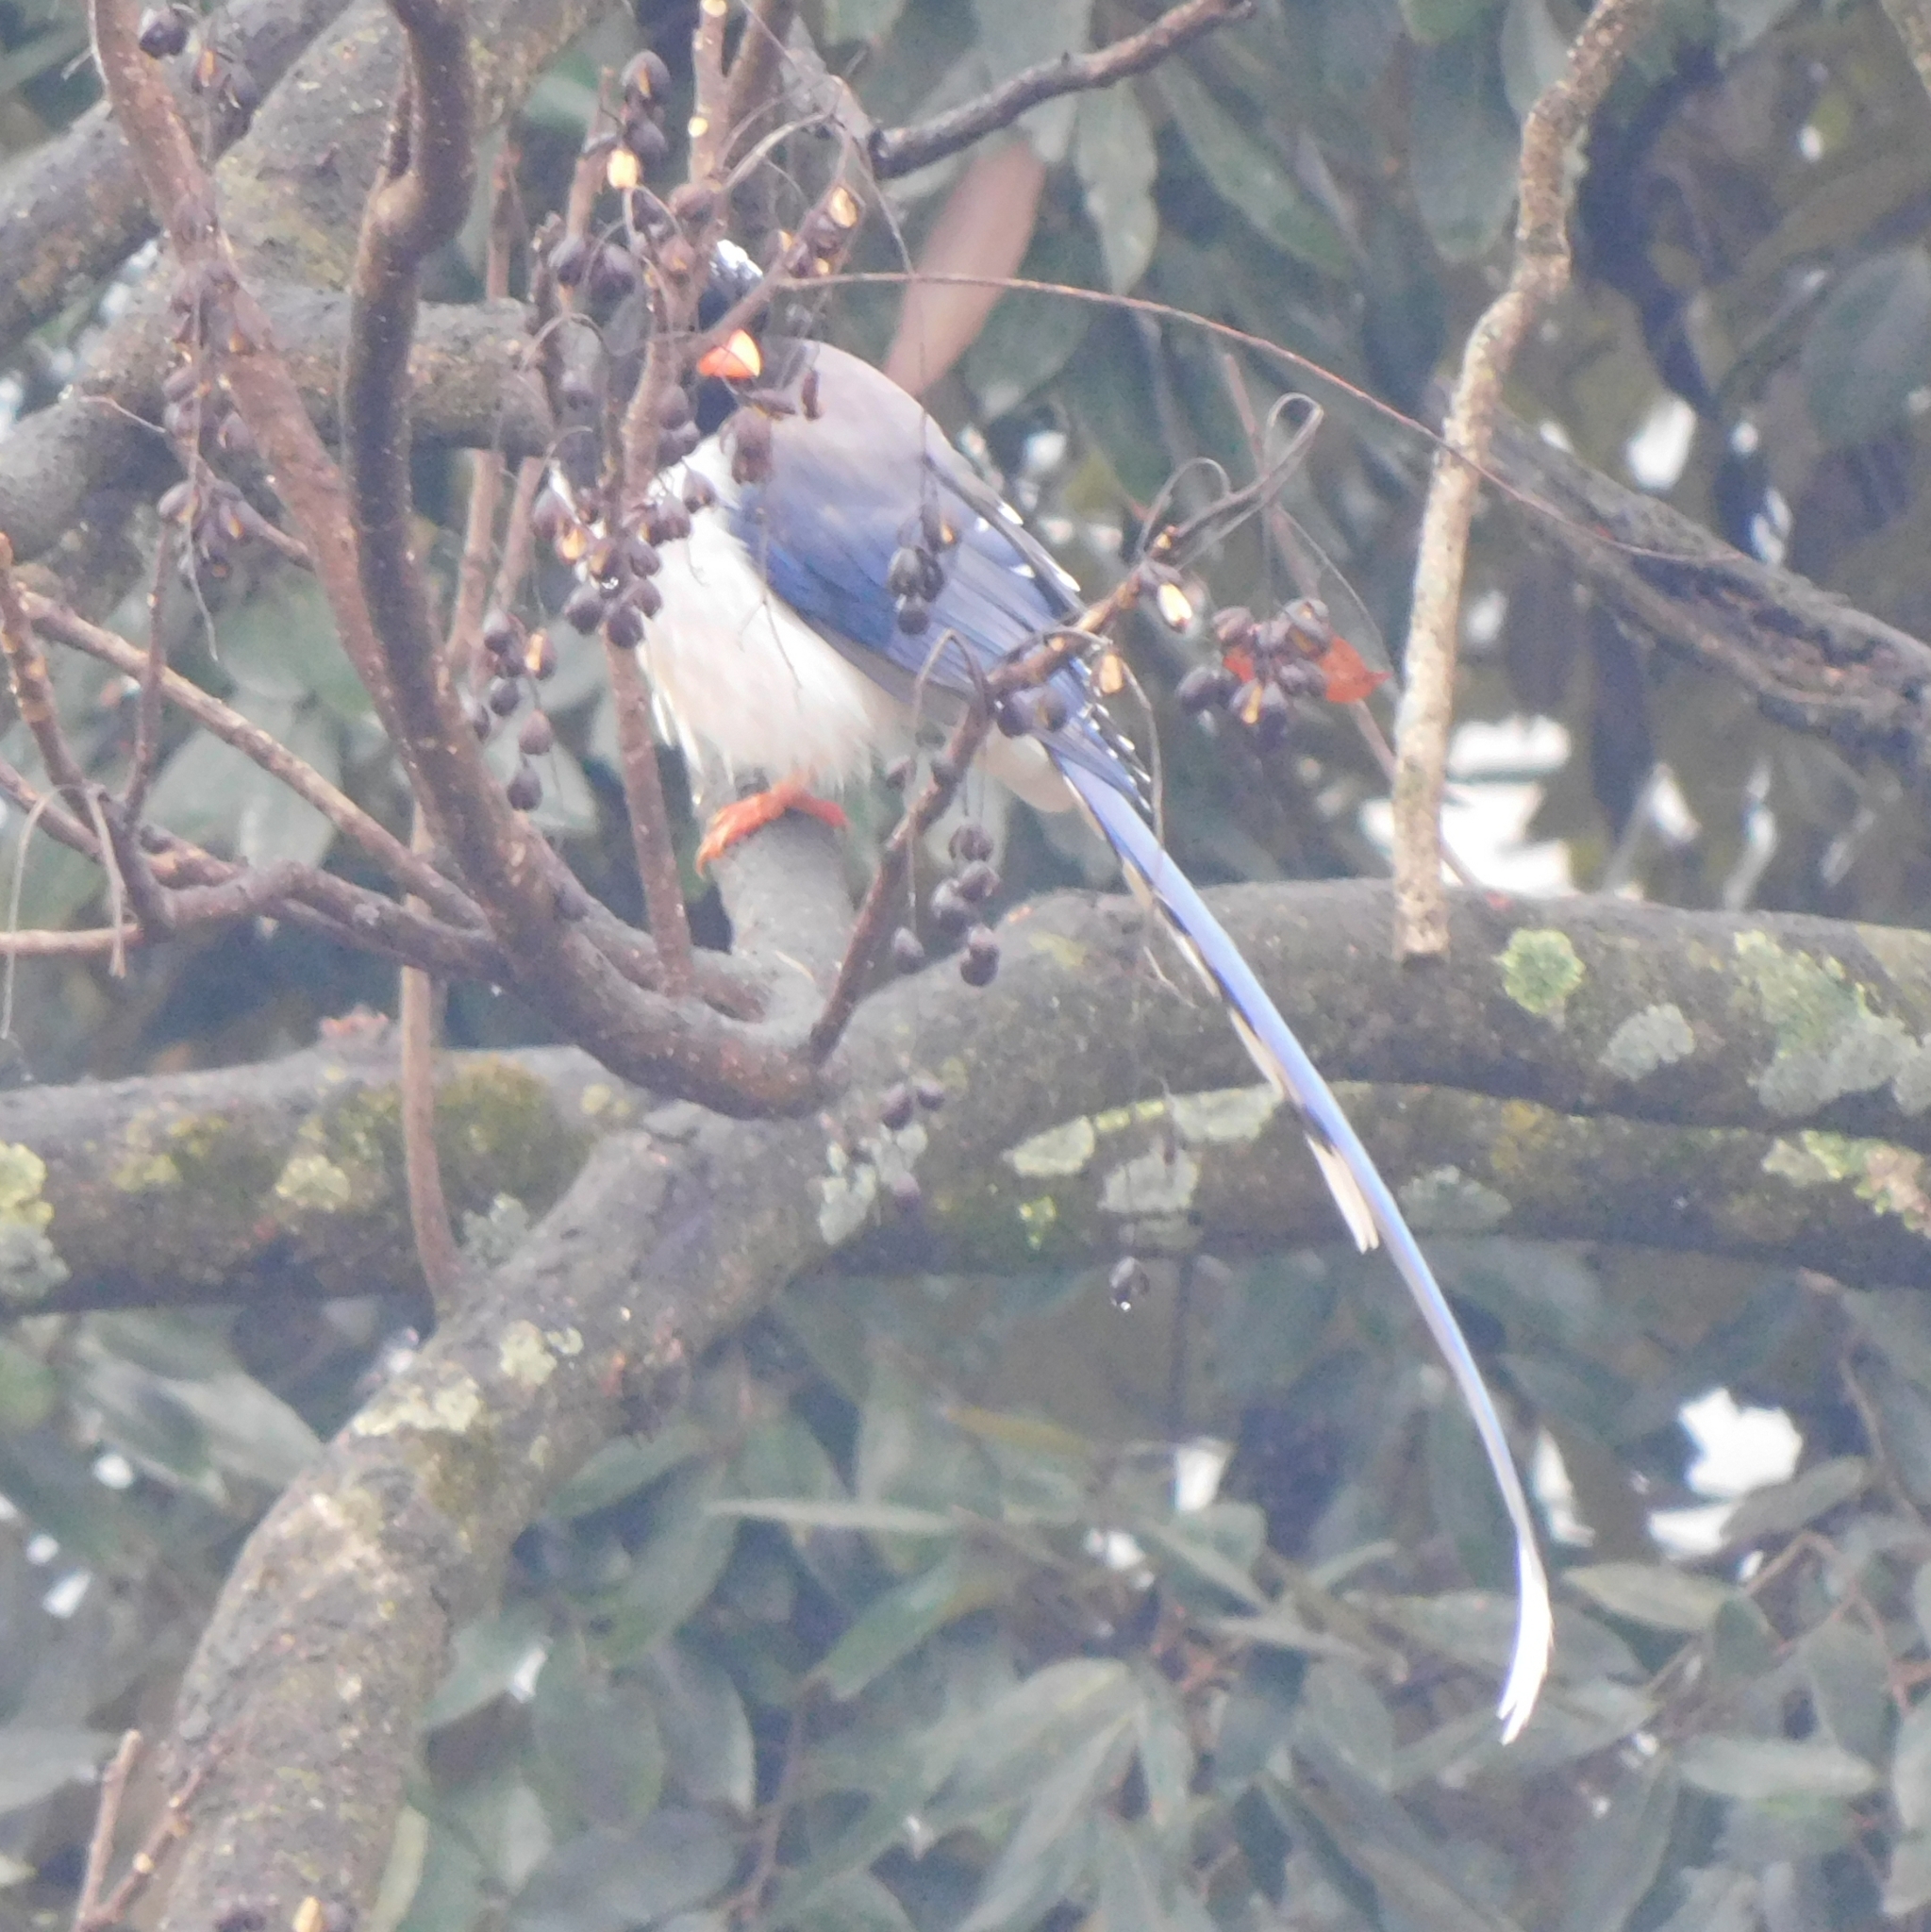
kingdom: Animalia
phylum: Chordata
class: Aves
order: Passeriformes
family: Corvidae
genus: Urocissa
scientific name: Urocissa erythroryncha
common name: Red-billed blue magpie
